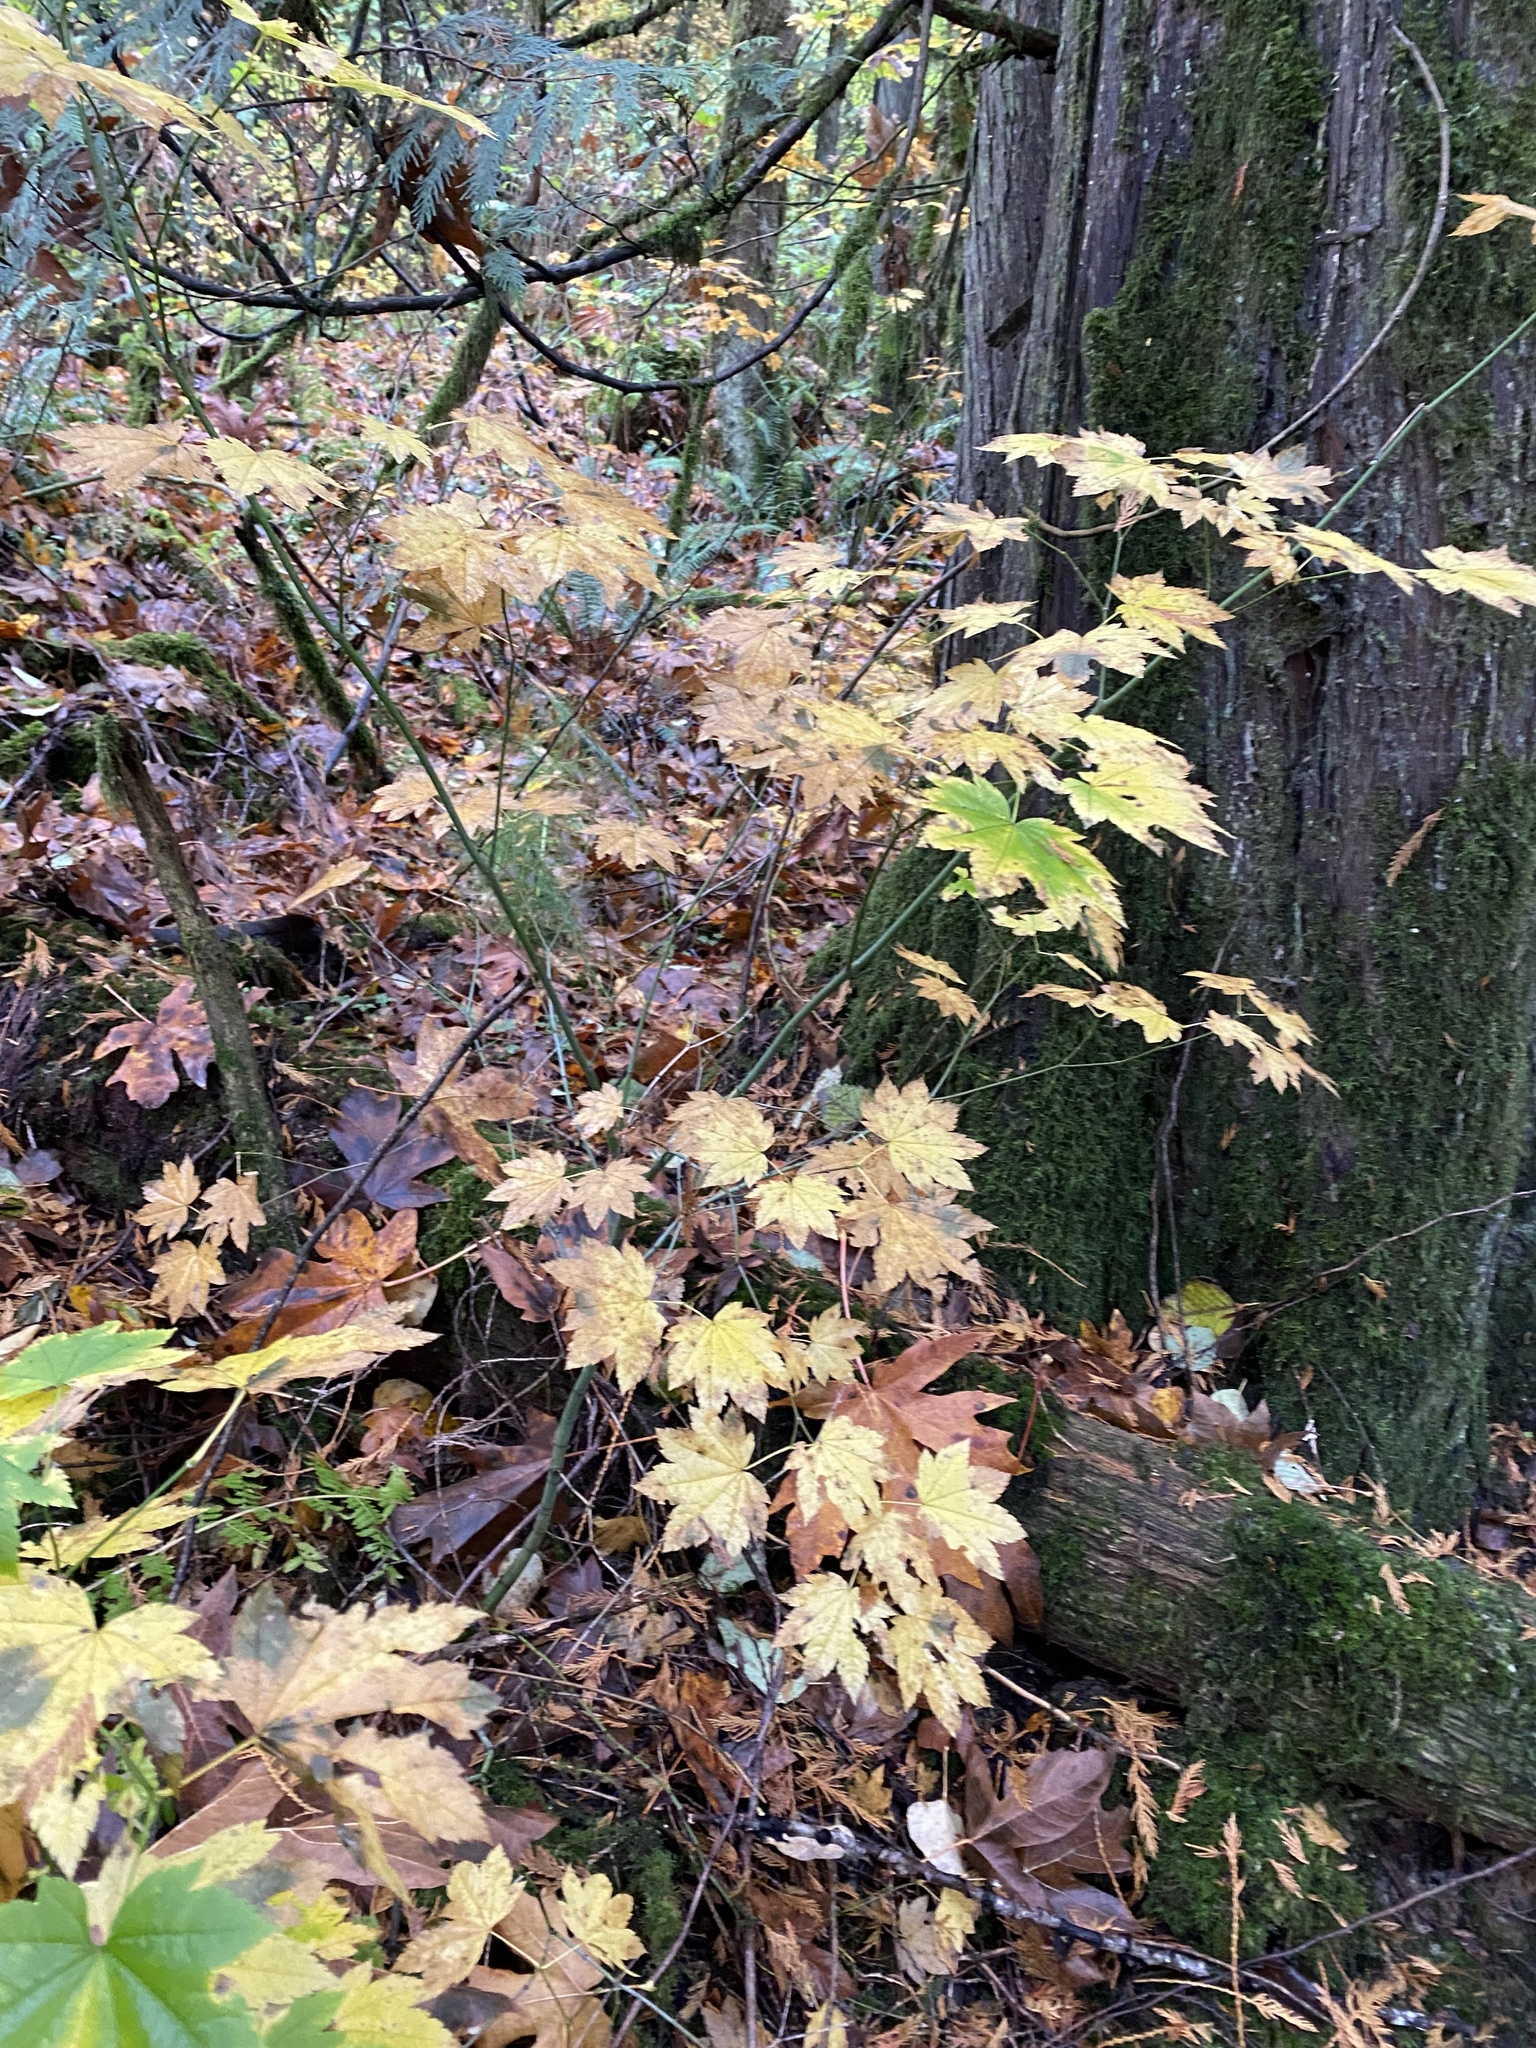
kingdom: Plantae
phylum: Tracheophyta
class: Magnoliopsida
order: Sapindales
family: Sapindaceae
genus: Acer
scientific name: Acer circinatum
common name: Vine maple
